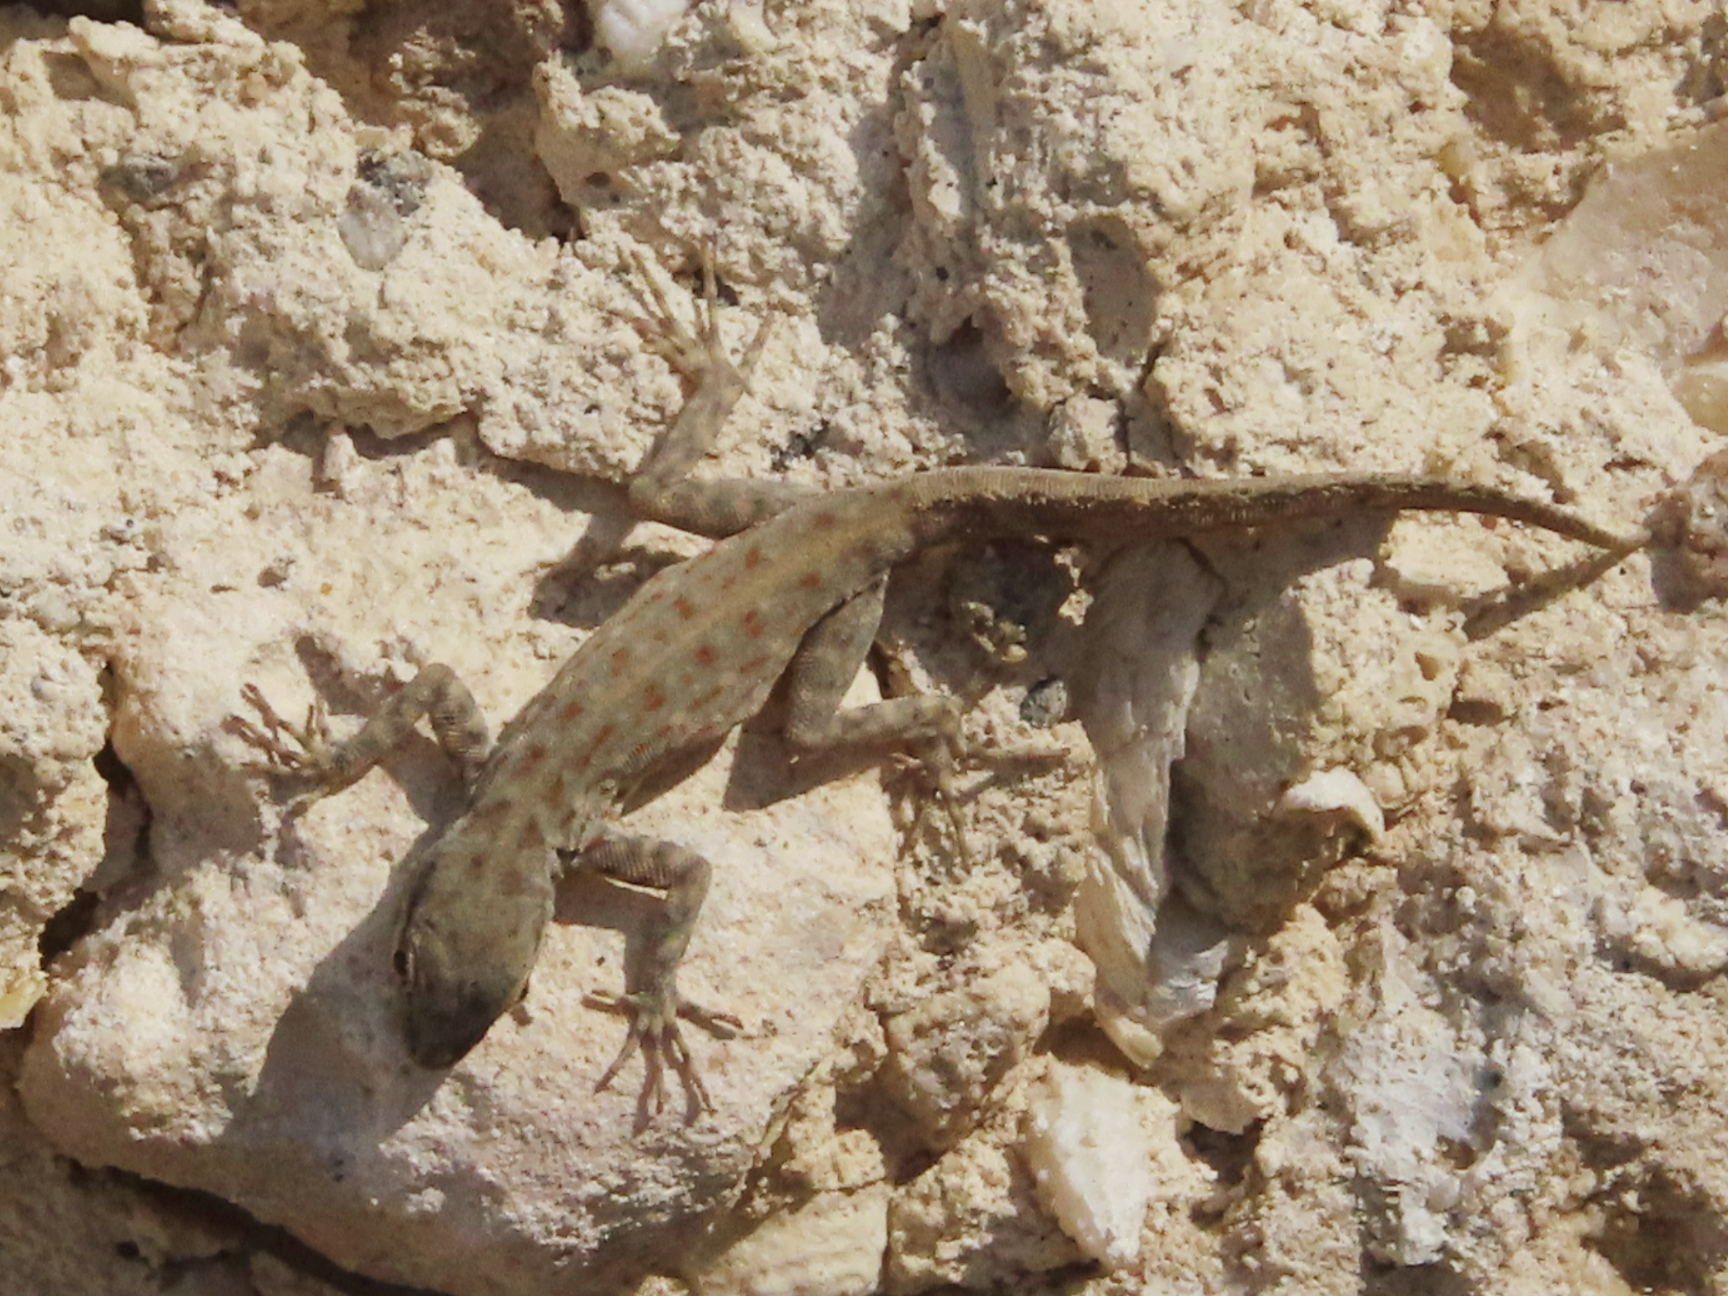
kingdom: Animalia
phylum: Chordata
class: Squamata
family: Sphaerodactylidae
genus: Pristurus
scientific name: Pristurus rupestris
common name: Blanford’s semaphore gecko
